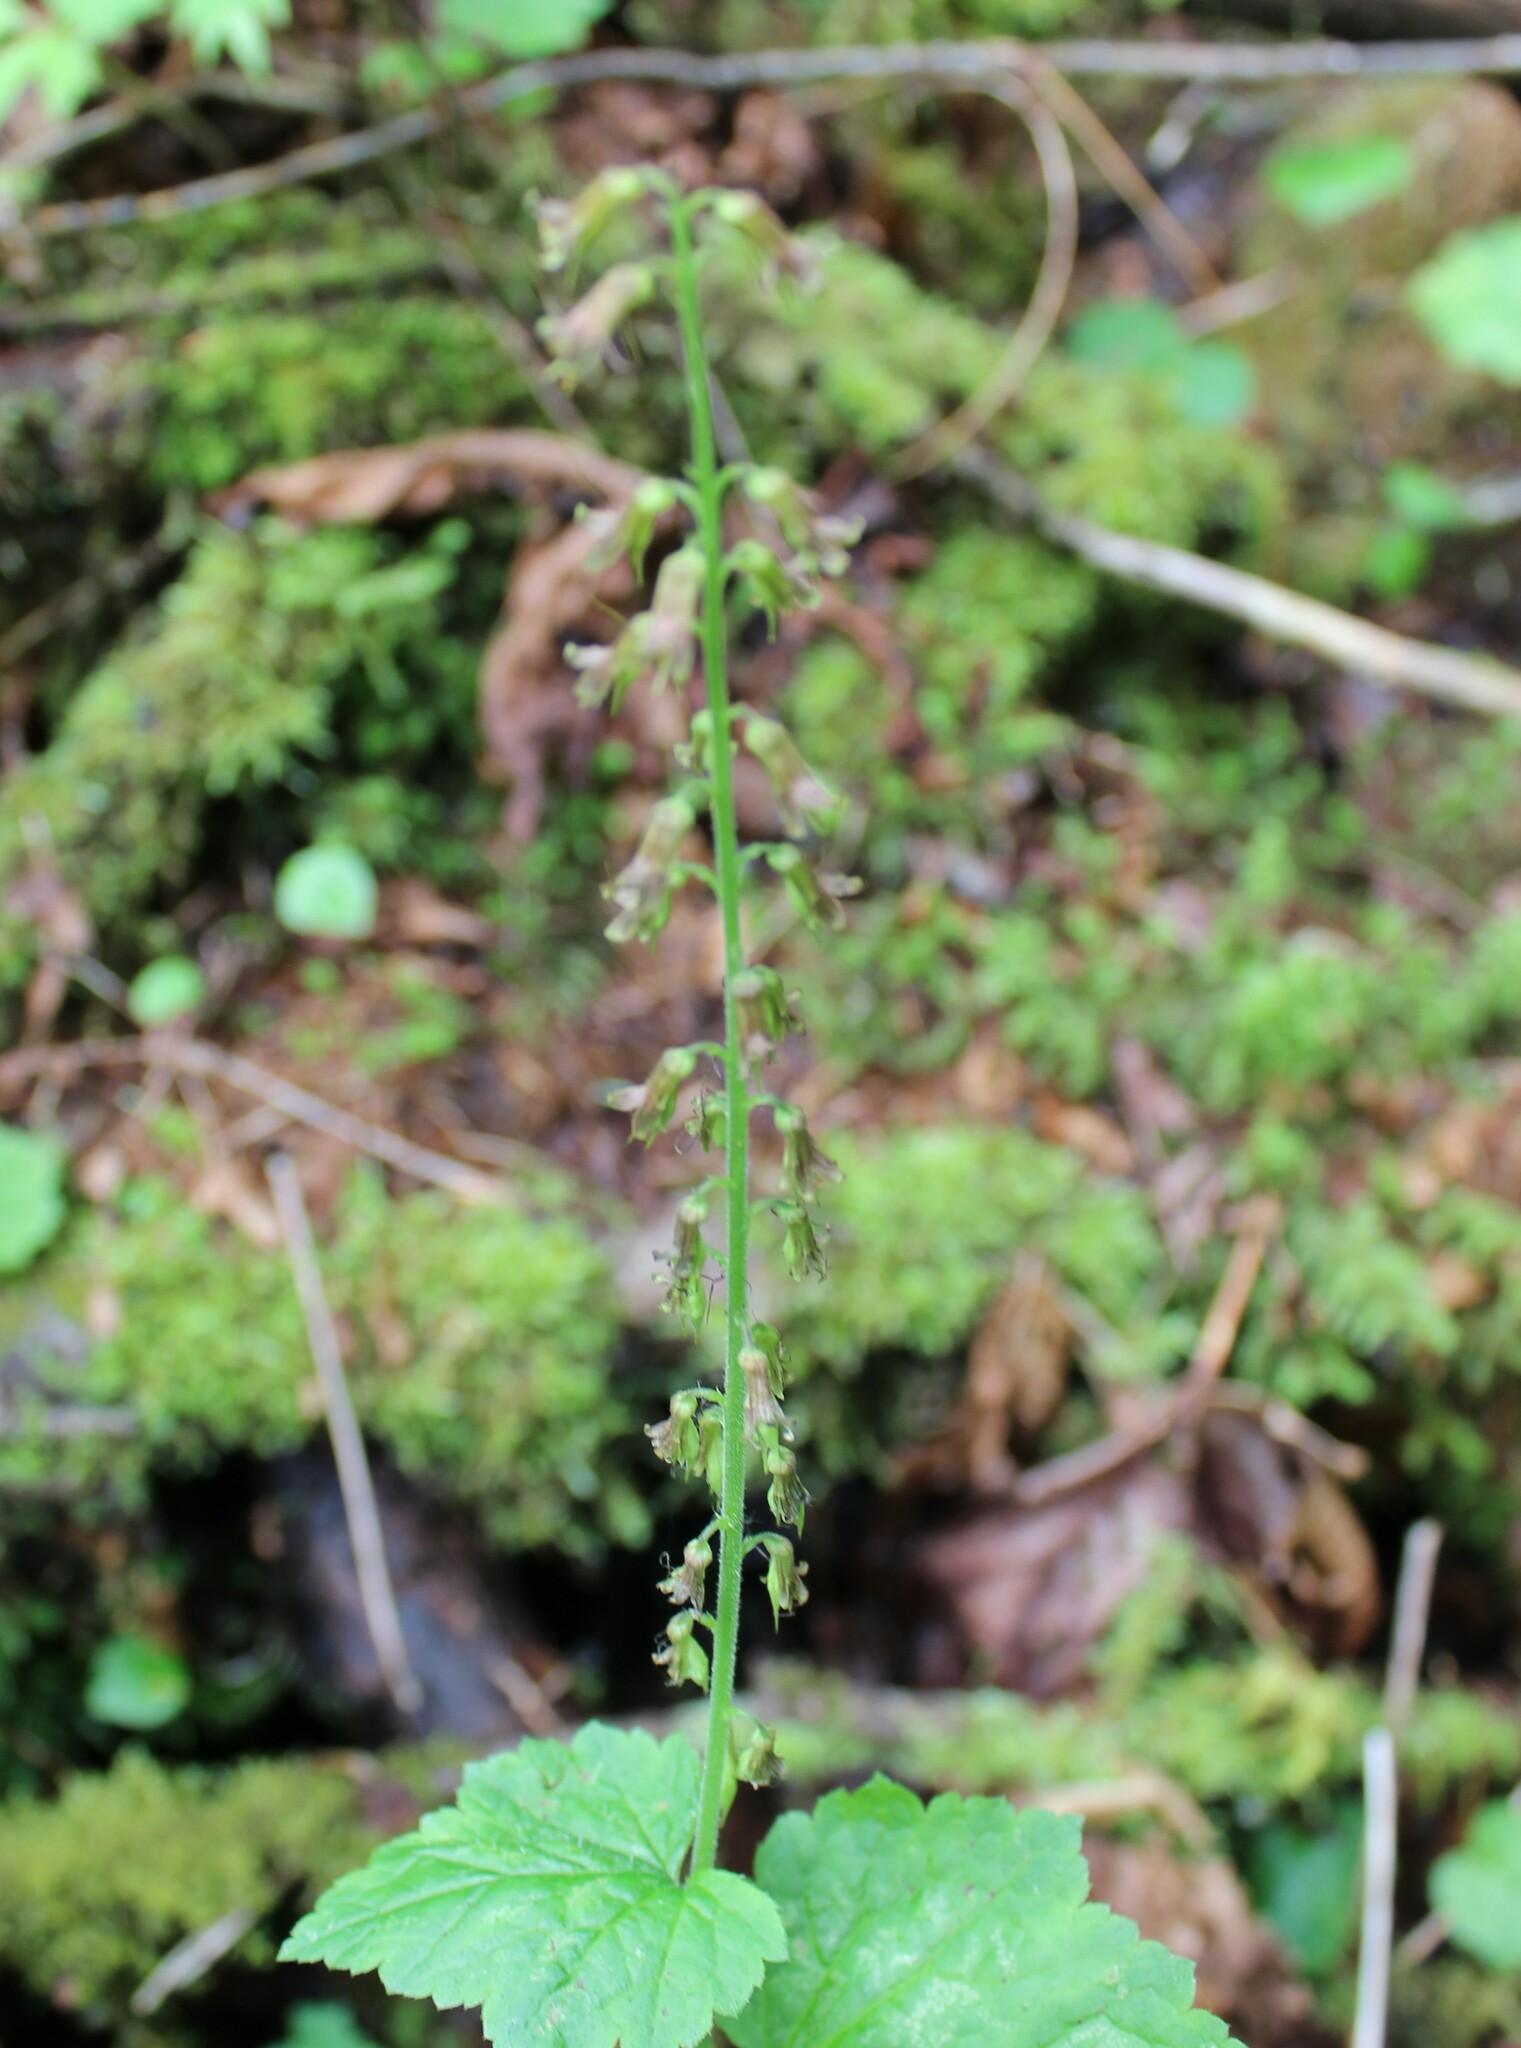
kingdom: Plantae
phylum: Tracheophyta
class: Magnoliopsida
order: Saxifragales
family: Saxifragaceae
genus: Tolmiea
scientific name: Tolmiea menziesii
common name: Pick-a-back-plant
